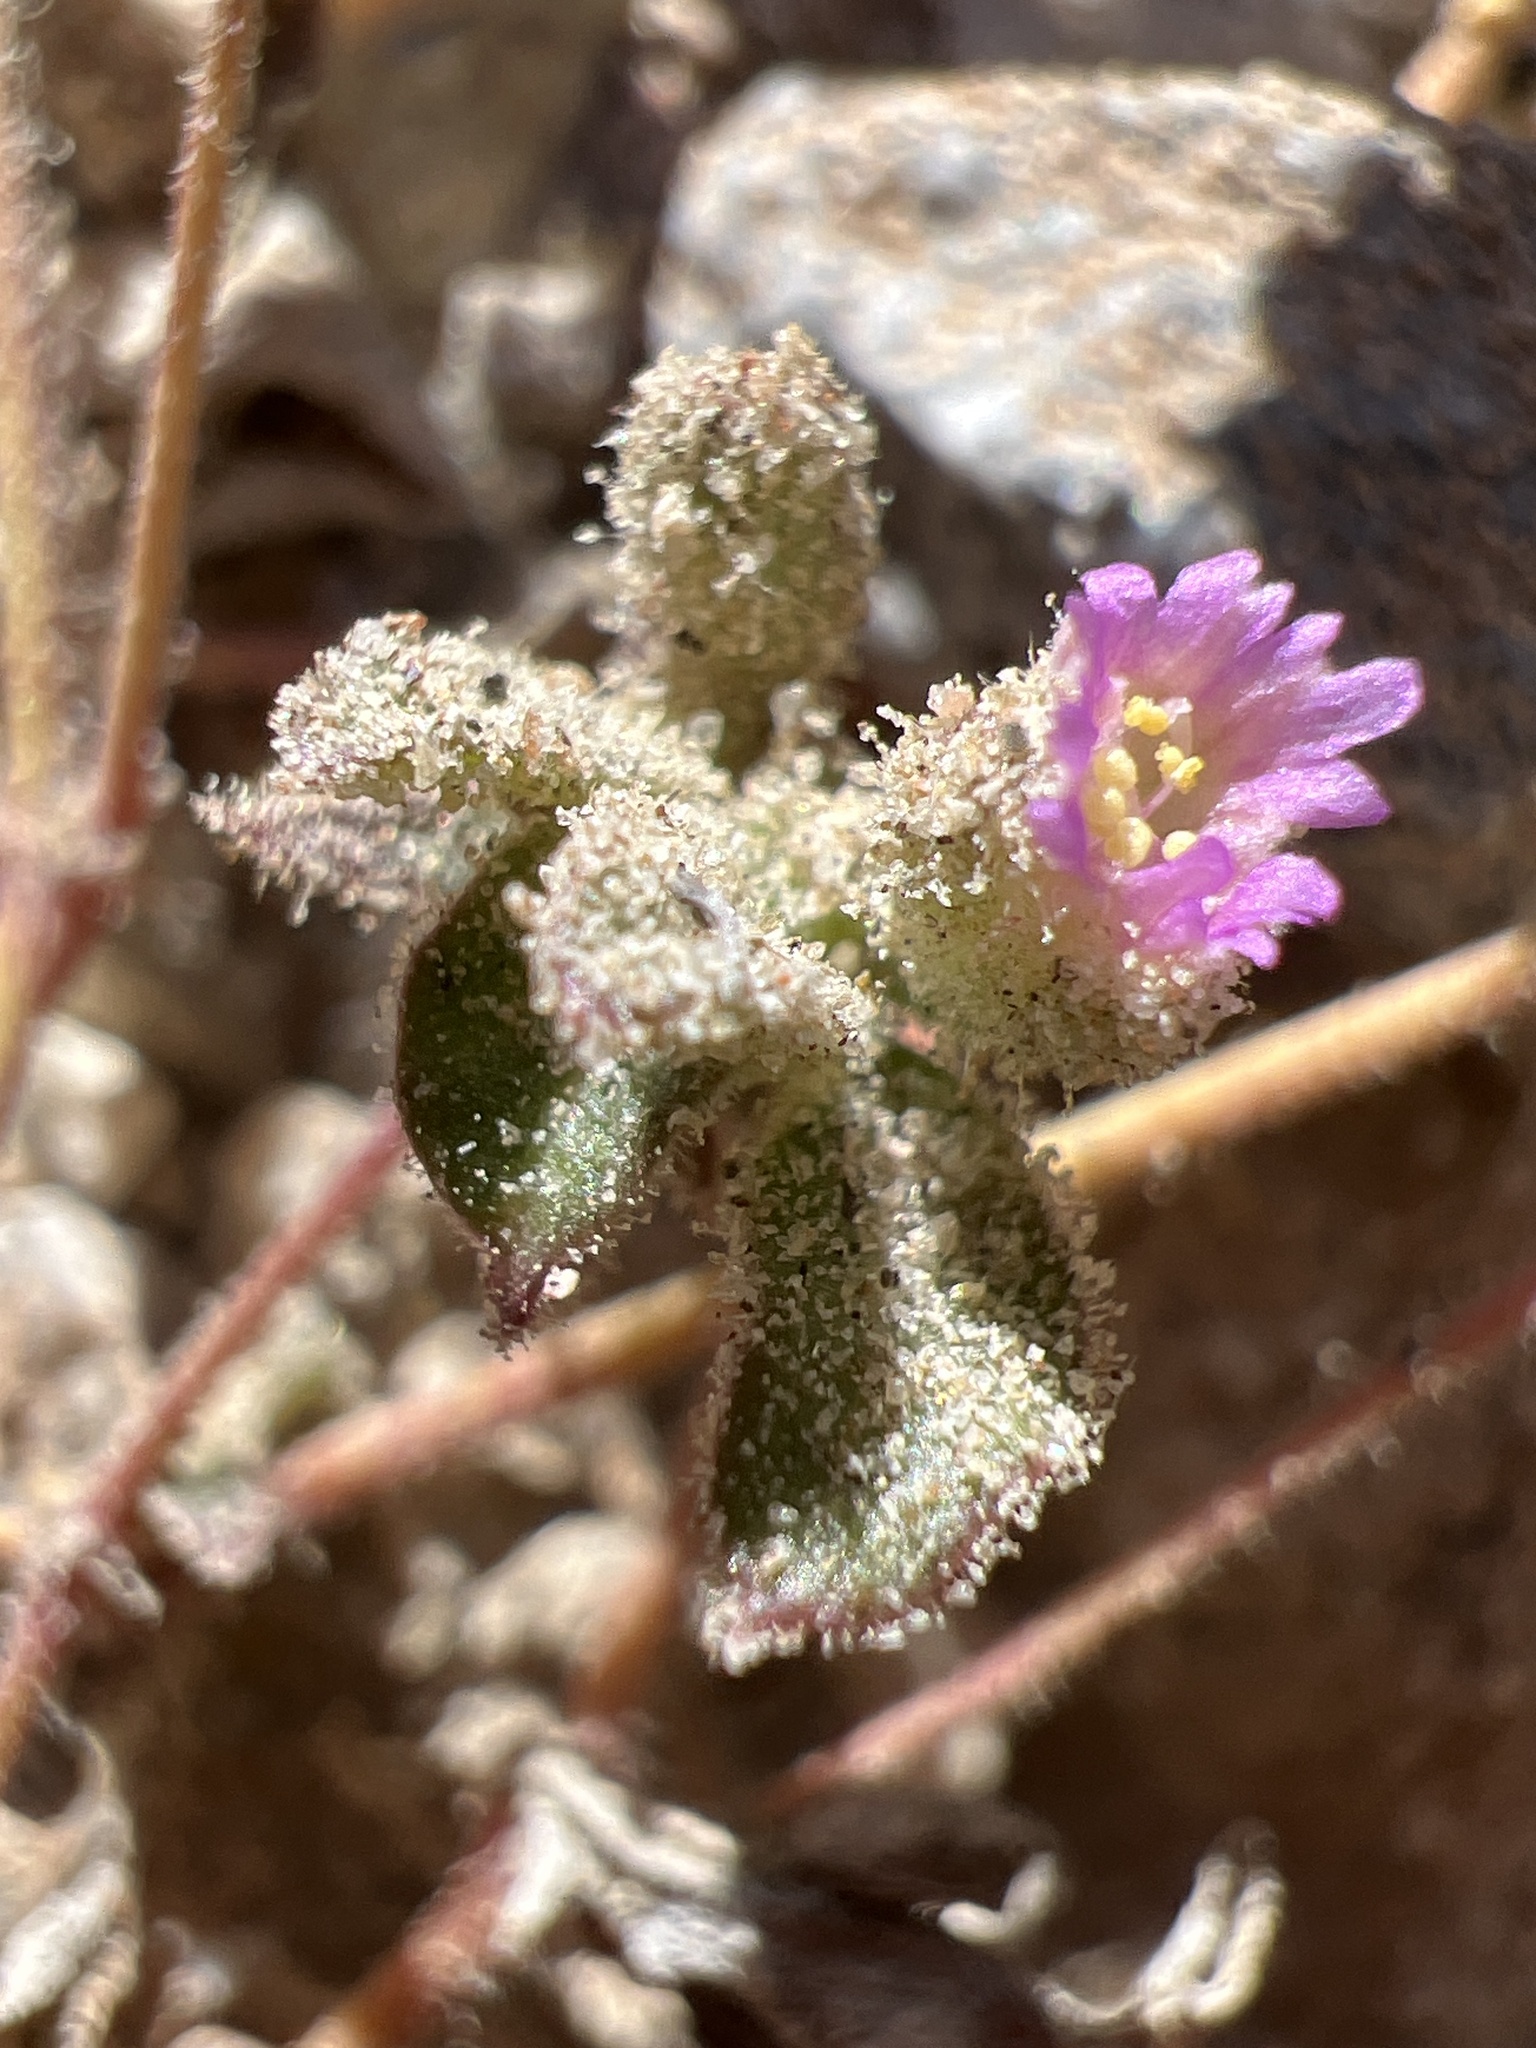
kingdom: Plantae
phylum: Tracheophyta
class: Magnoliopsida
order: Caryophyllales
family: Nyctaginaceae
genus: Allionia
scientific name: Allionia incarnata
